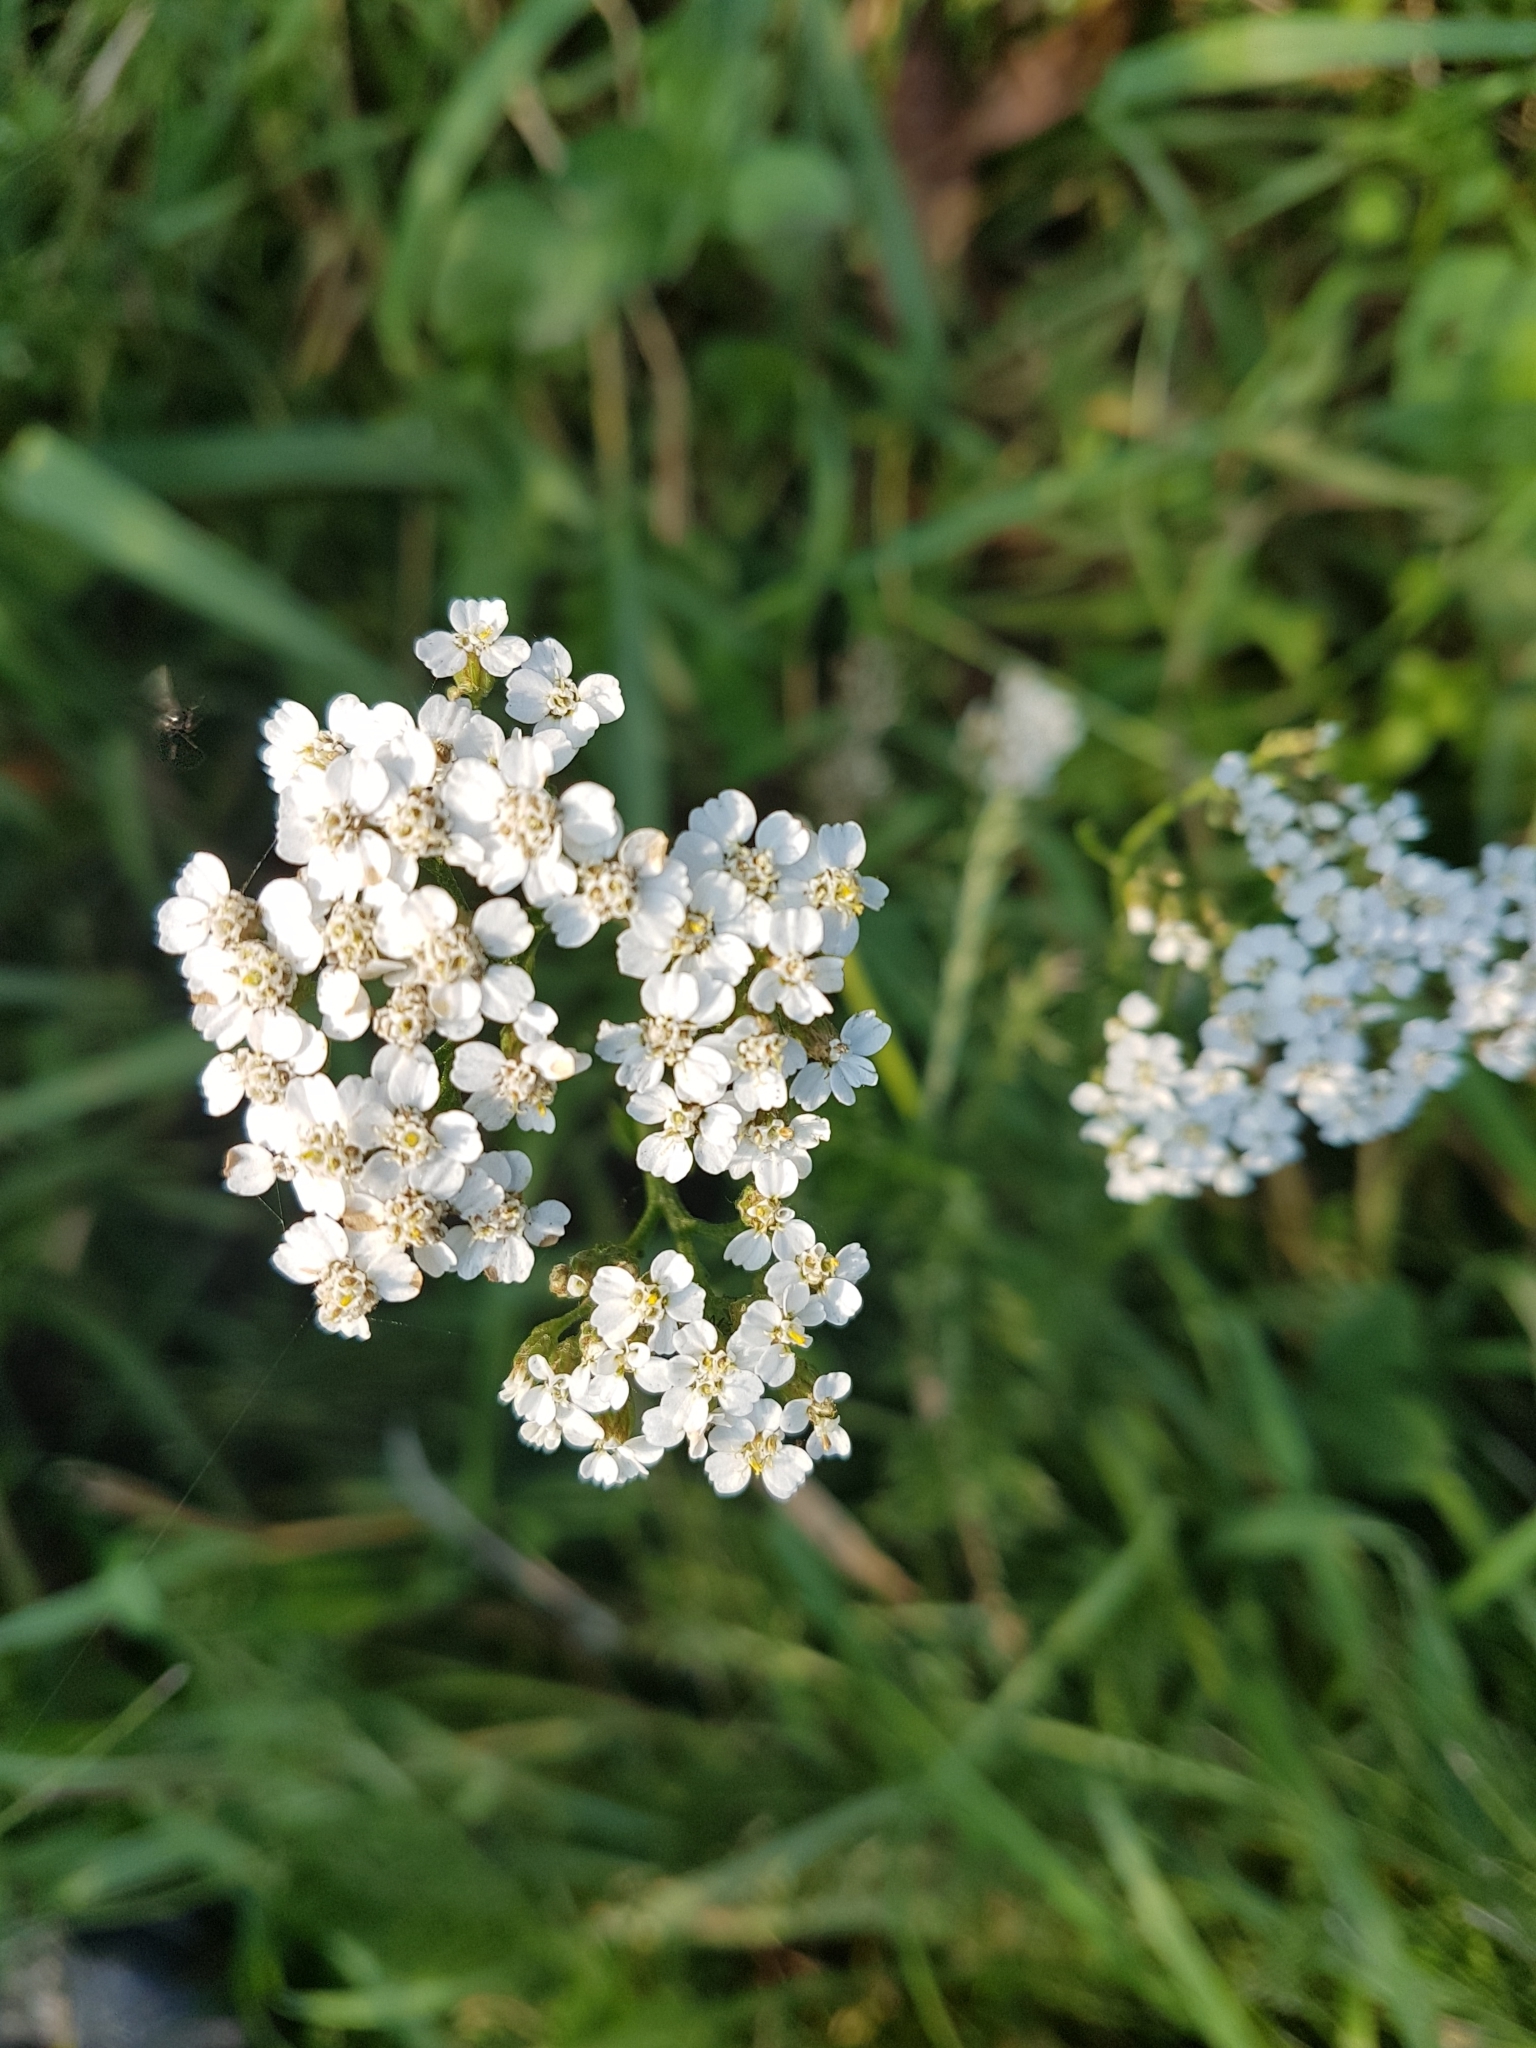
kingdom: Plantae
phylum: Tracheophyta
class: Magnoliopsida
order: Asterales
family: Asteraceae
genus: Achillea
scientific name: Achillea millefolium
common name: Yarrow
